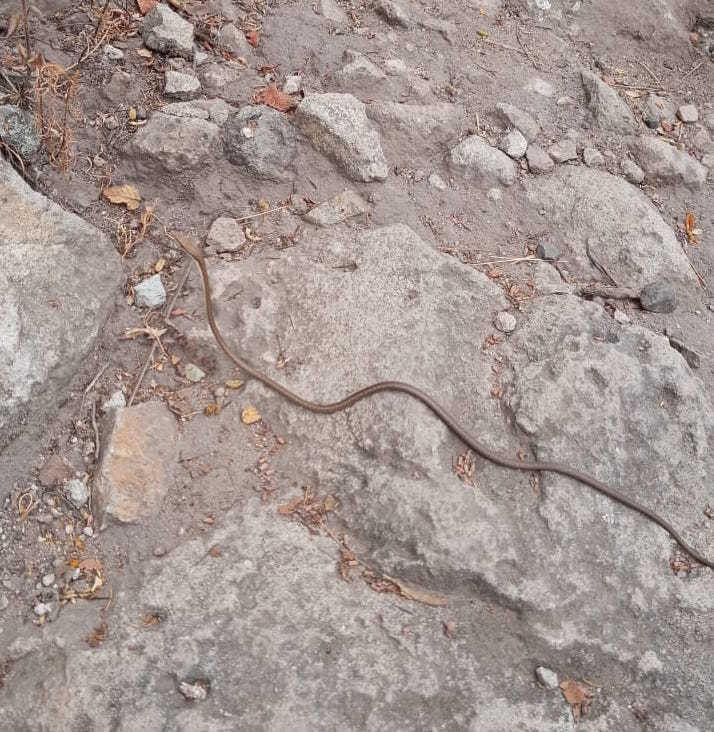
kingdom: Animalia
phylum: Chordata
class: Squamata
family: Colubridae
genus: Oxybelis
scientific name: Oxybelis microphthalmus
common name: Thrornscrub vine snake
